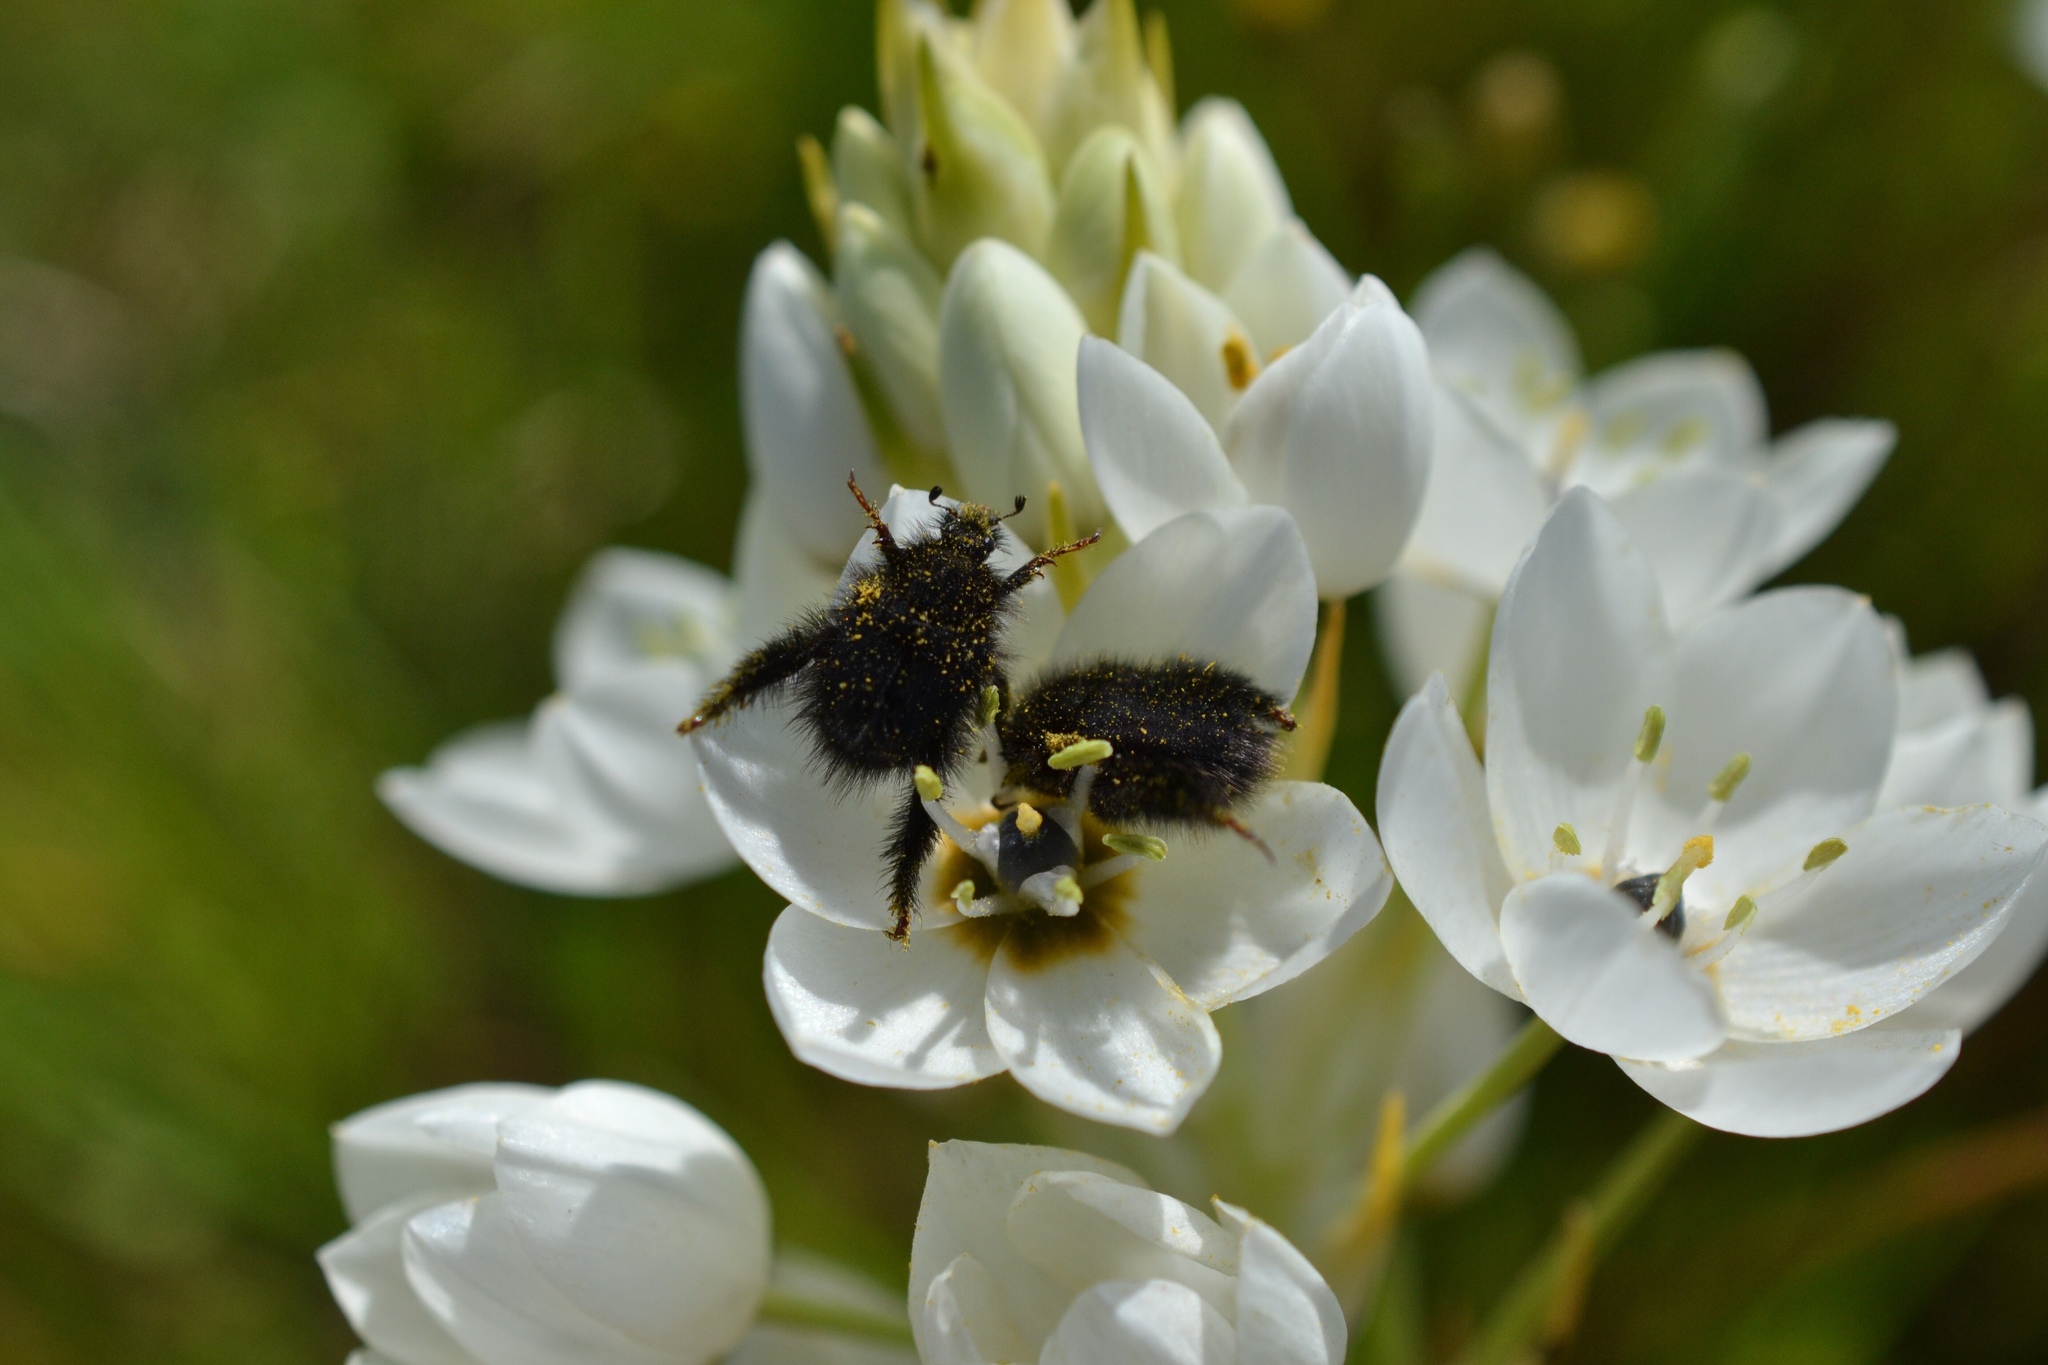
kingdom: Animalia
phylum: Arthropoda
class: Insecta
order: Coleoptera
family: Scarabaeidae
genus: Peritrichia
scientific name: Peritrichia cinerea
